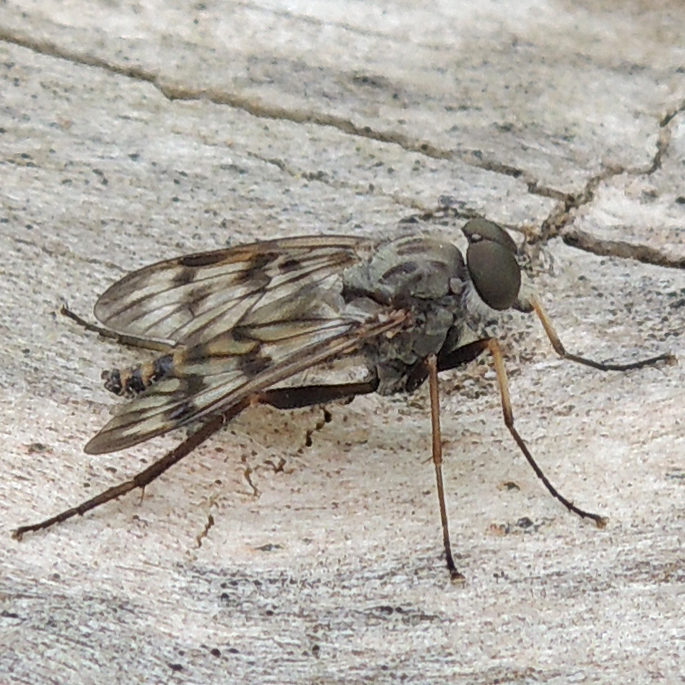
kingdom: Animalia
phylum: Arthropoda
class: Insecta
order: Diptera
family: Rhagionidae
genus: Rhagio
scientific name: Rhagio mystaceus
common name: Common snipe fly
